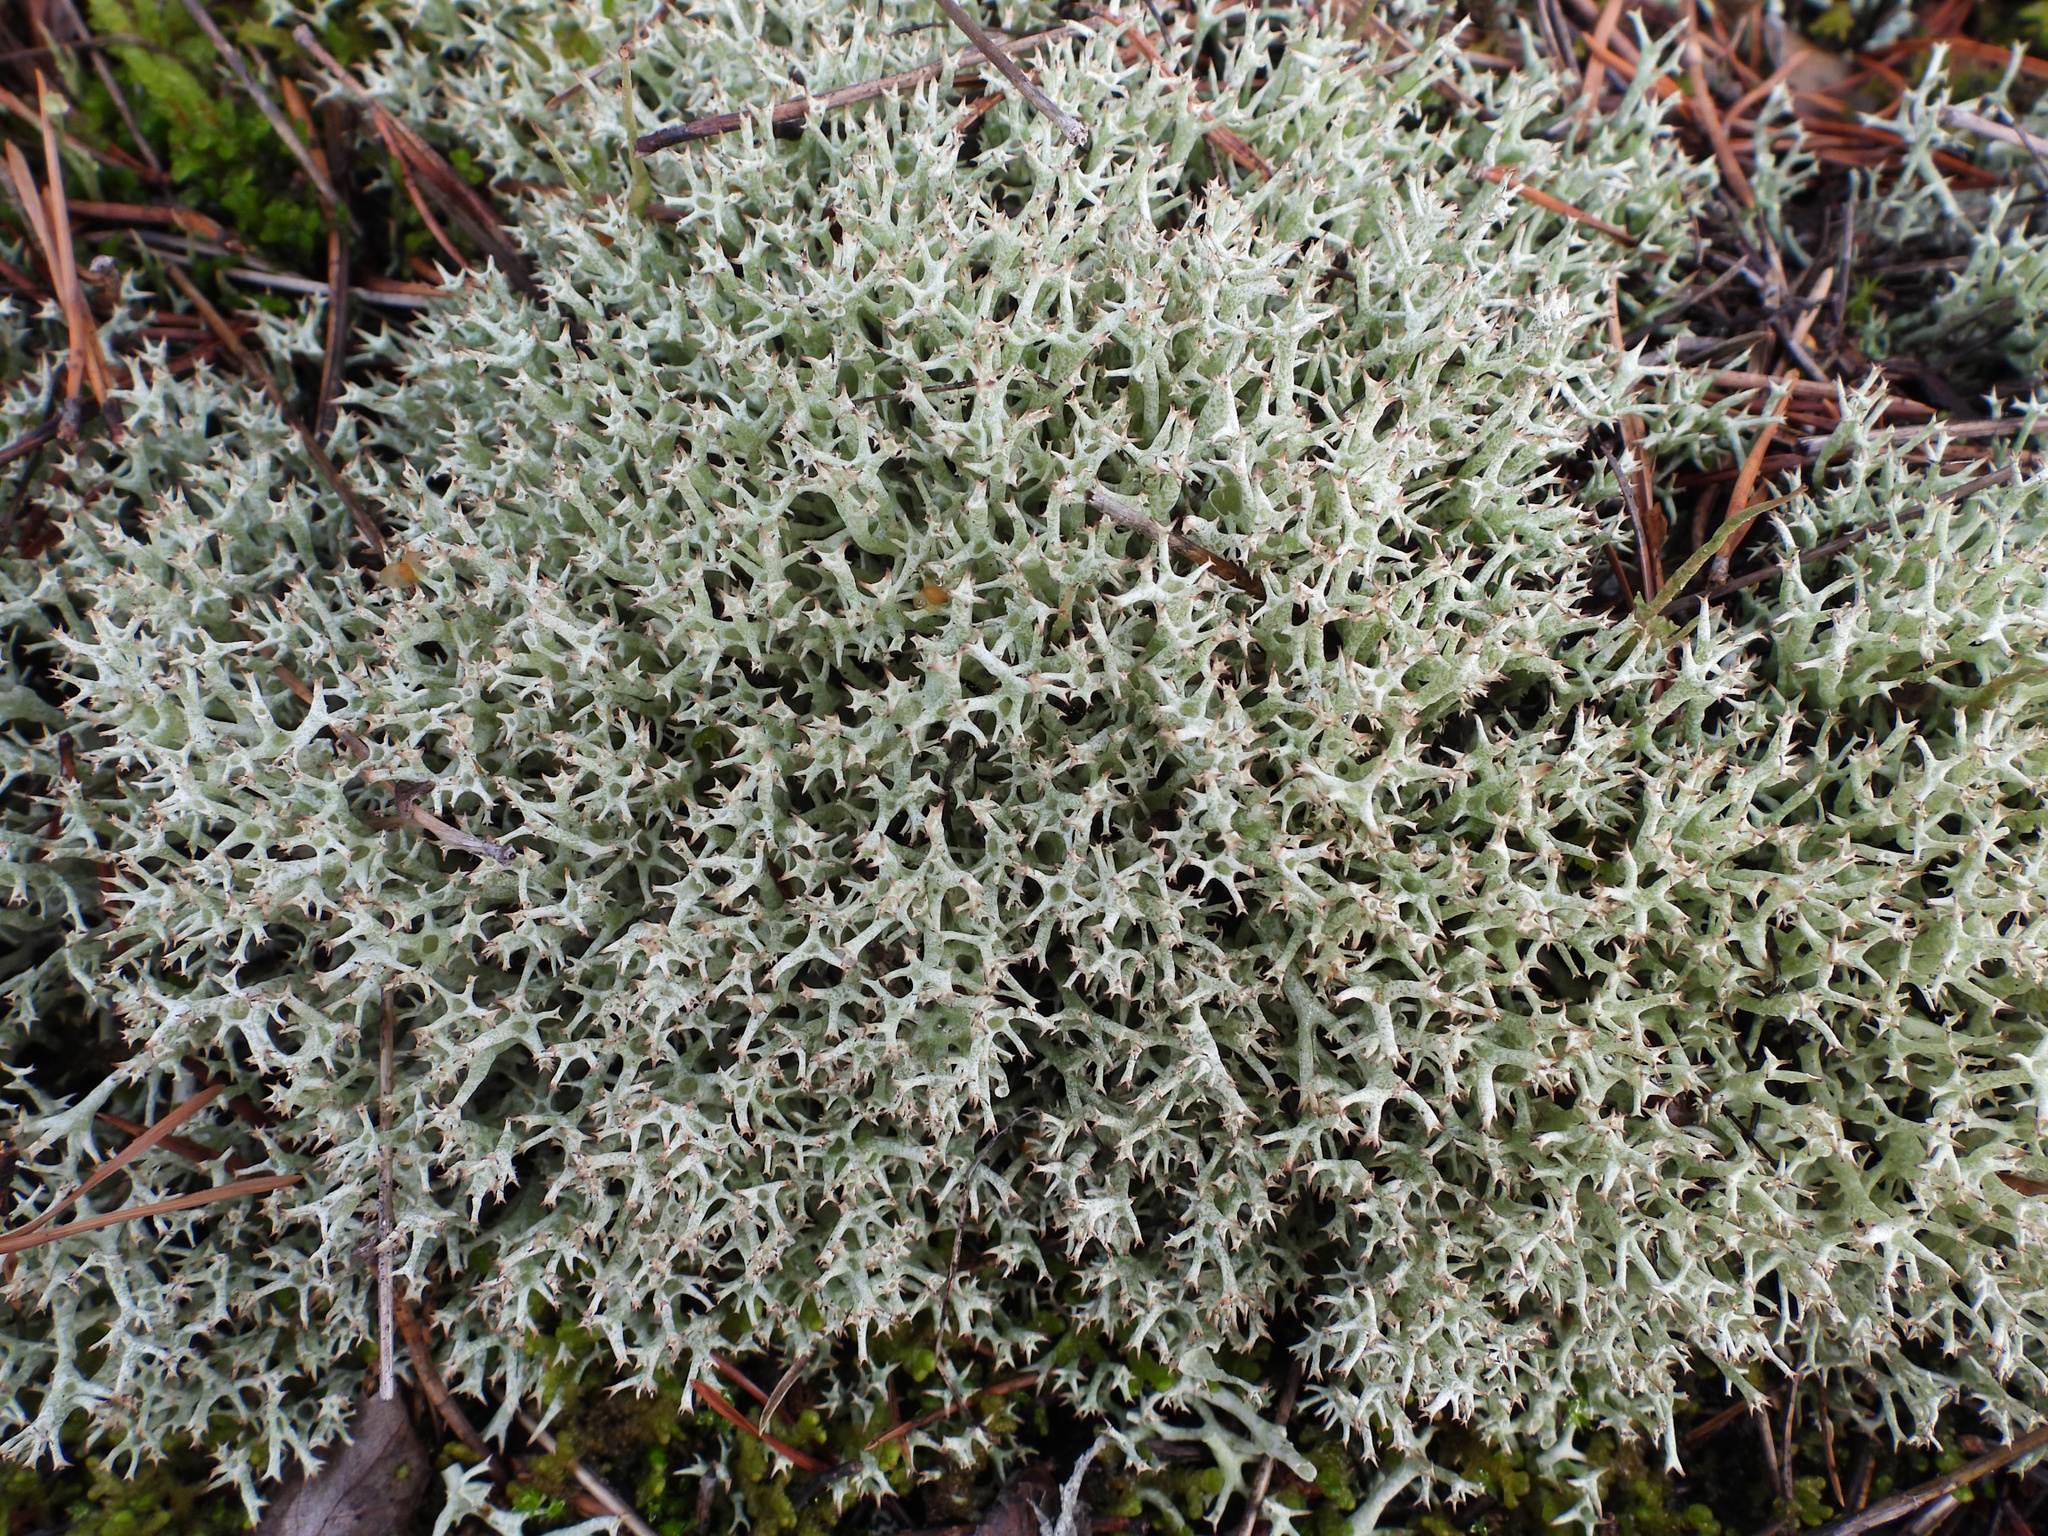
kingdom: Fungi
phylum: Ascomycota
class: Lecanoromycetes
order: Lecanorales
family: Cladoniaceae
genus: Cladonia
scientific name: Cladonia uncialis
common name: Thorn lichen
